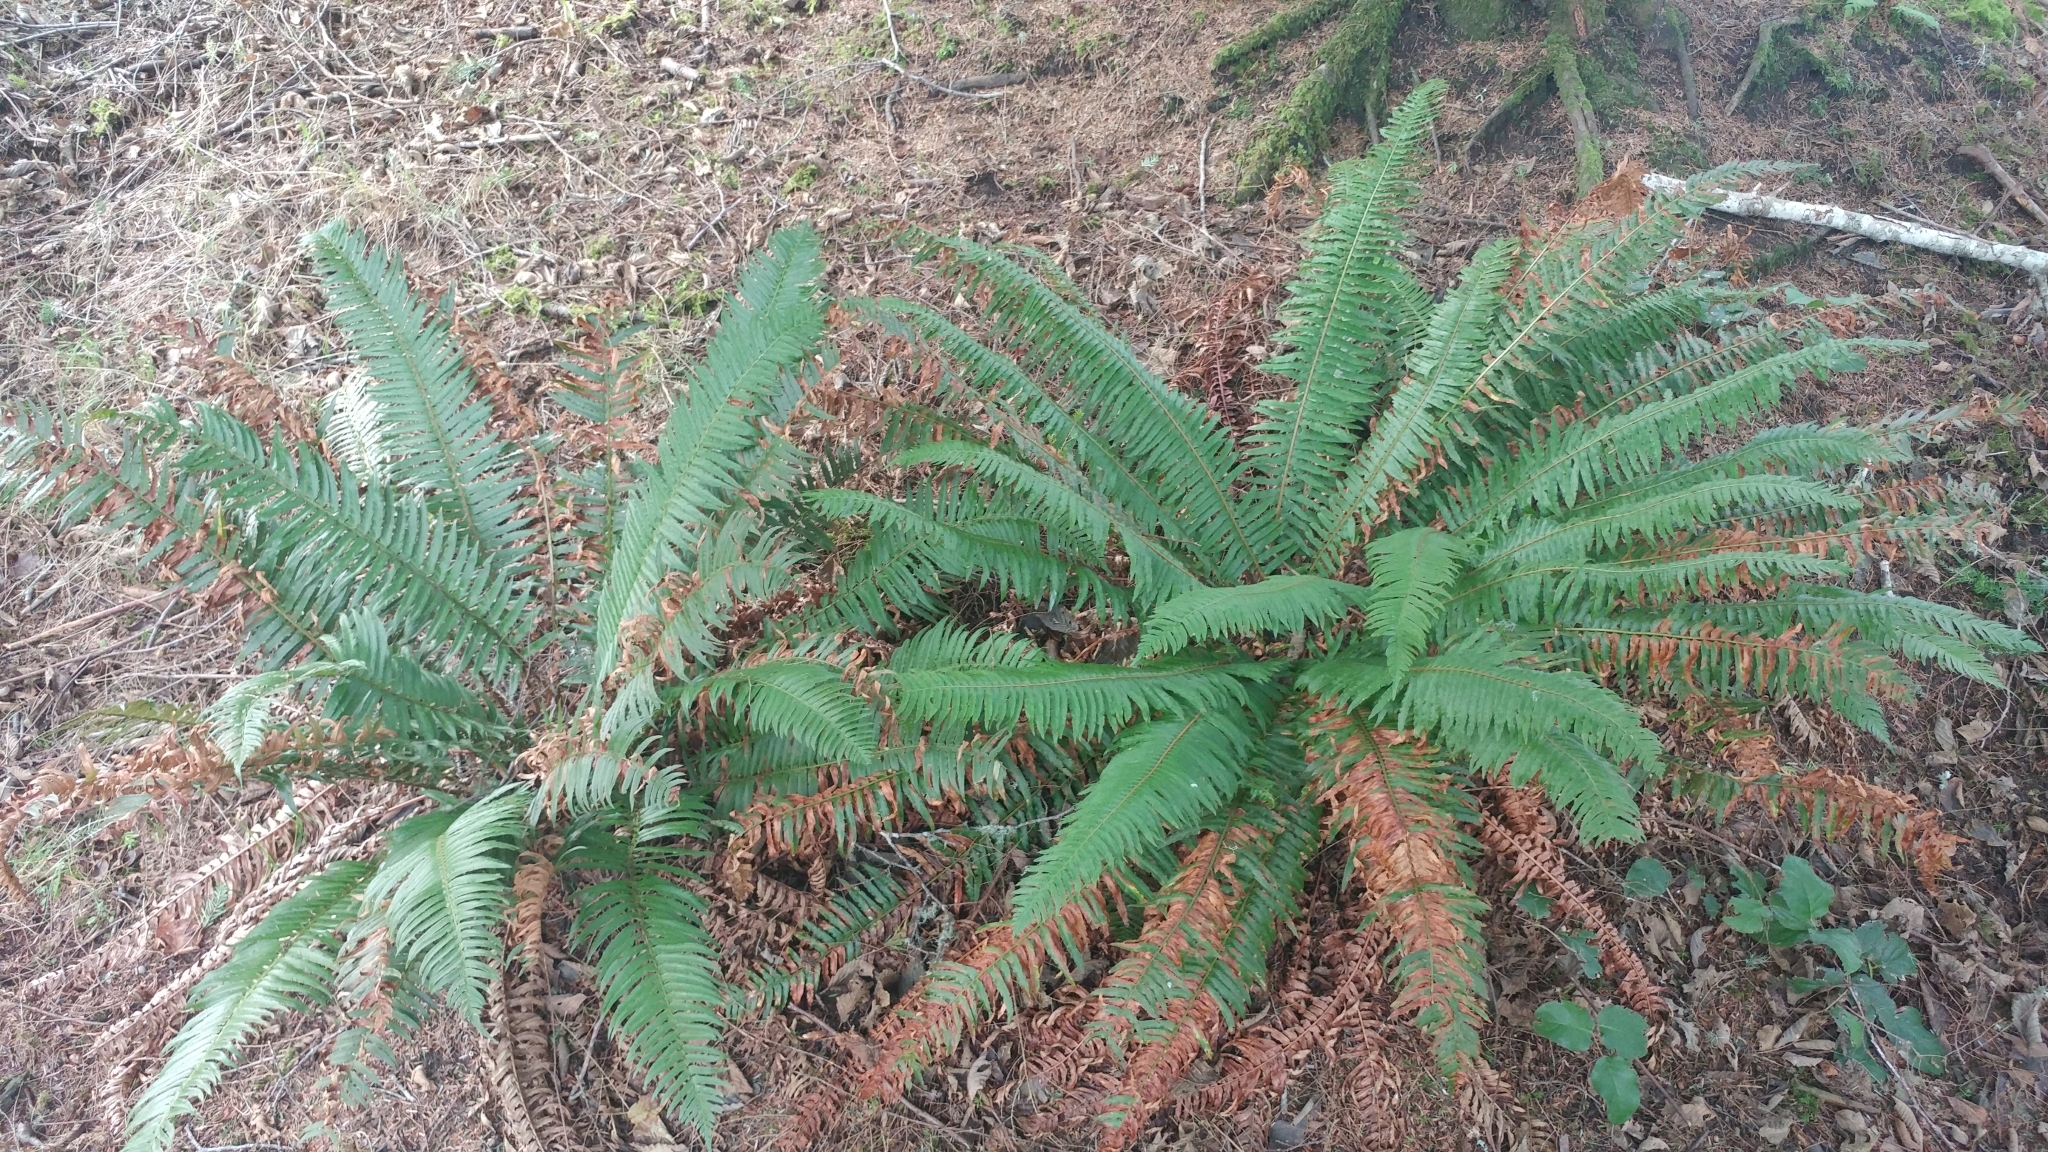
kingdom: Plantae
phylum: Tracheophyta
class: Polypodiopsida
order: Polypodiales
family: Dryopteridaceae
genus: Polystichum
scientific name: Polystichum munitum
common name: Western sword-fern
